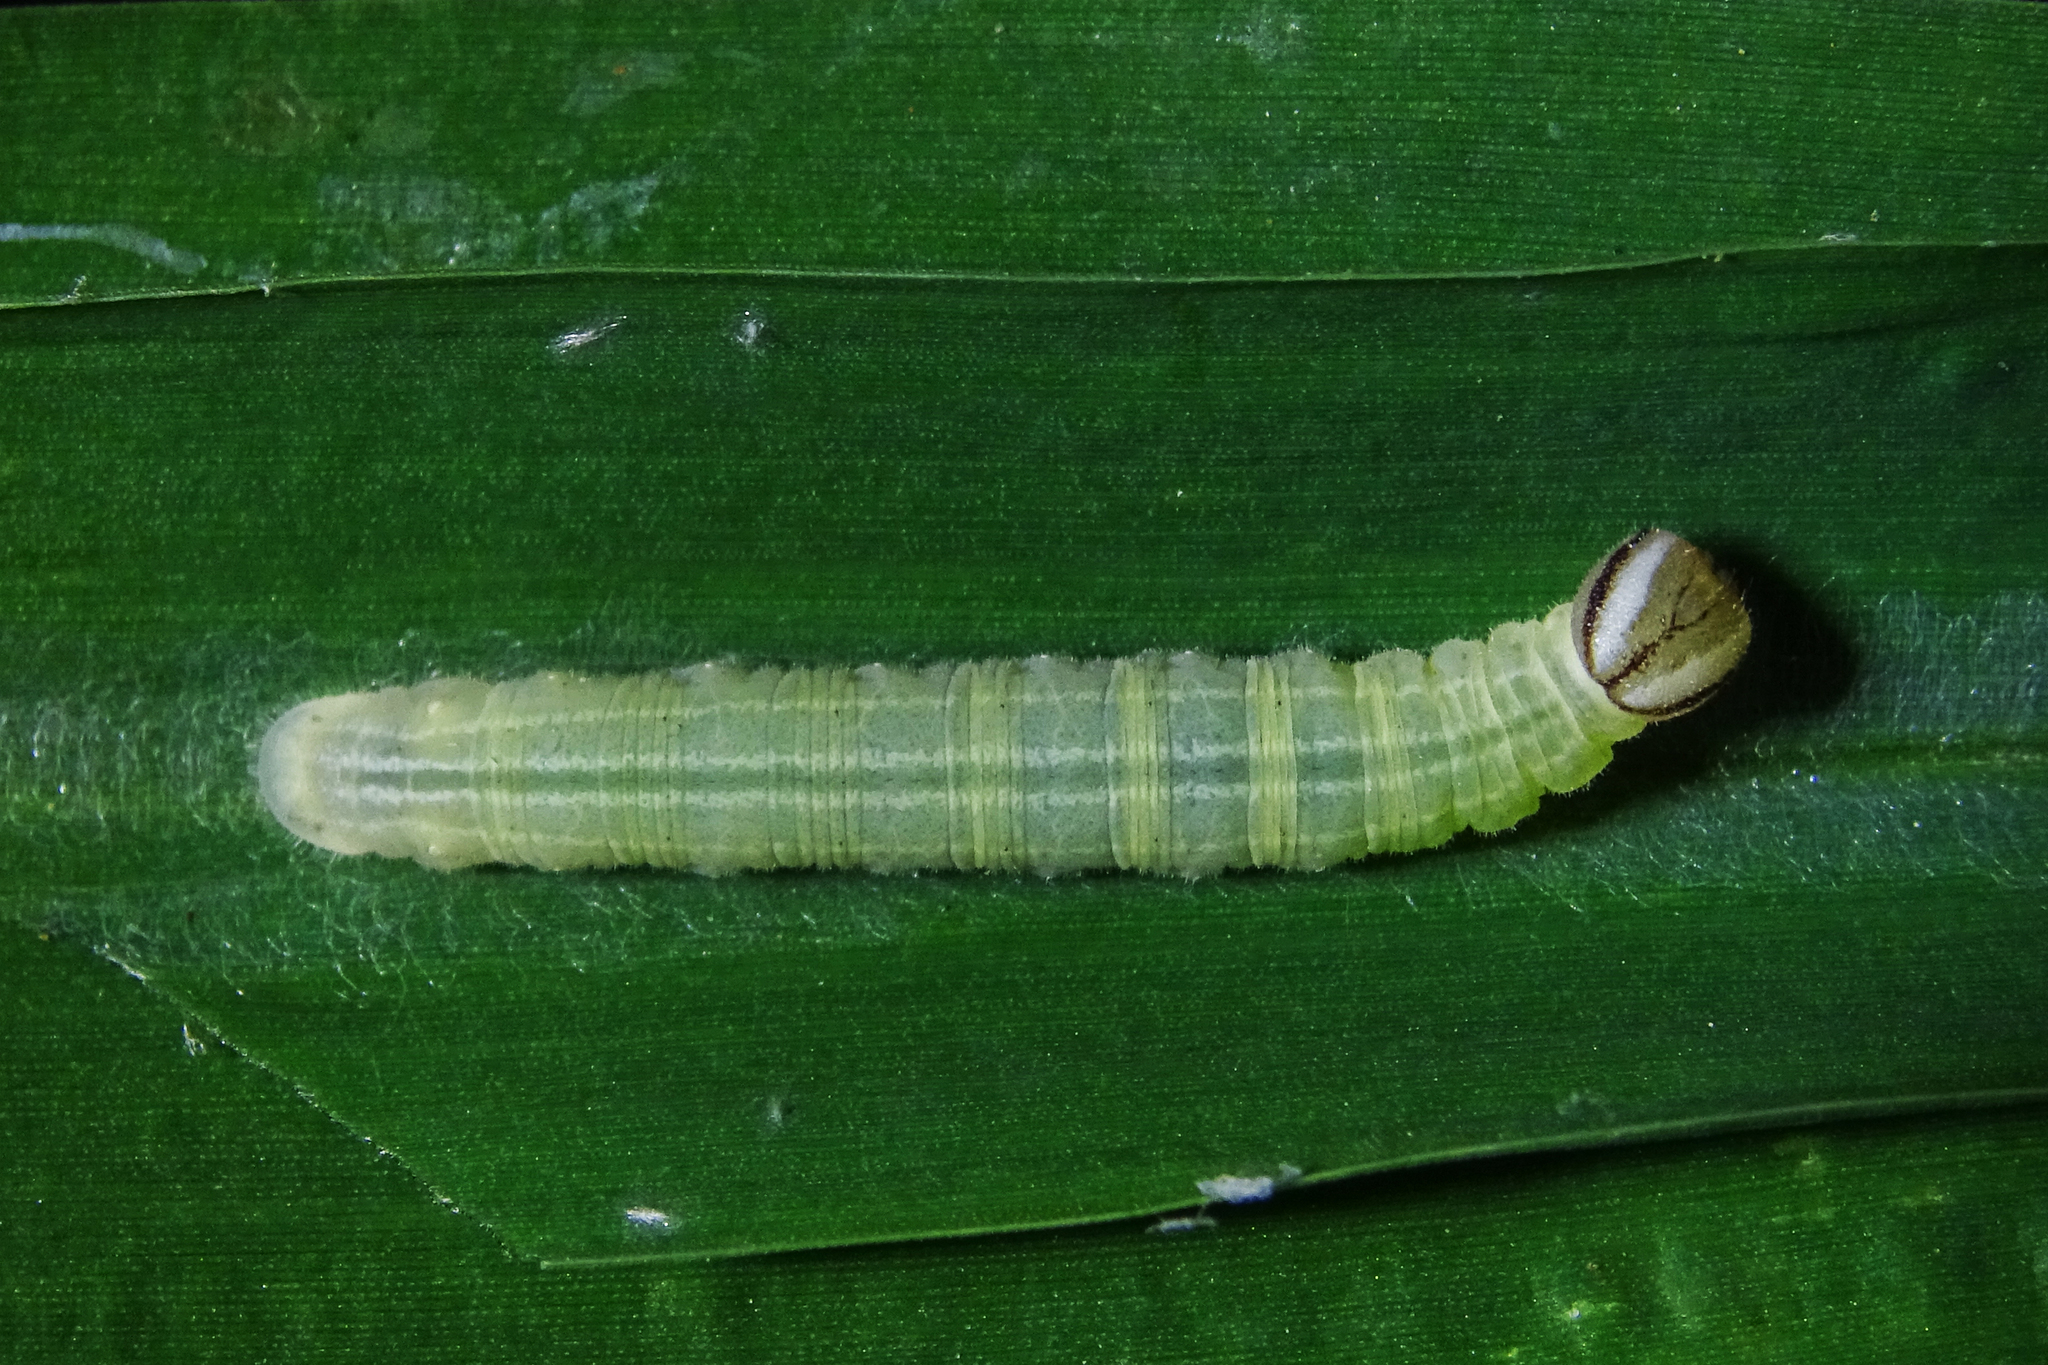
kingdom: Animalia
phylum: Arthropoda
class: Insecta
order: Lepidoptera
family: Hesperiidae
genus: Borbo
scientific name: Borbo cinnara
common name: Formosan swift
